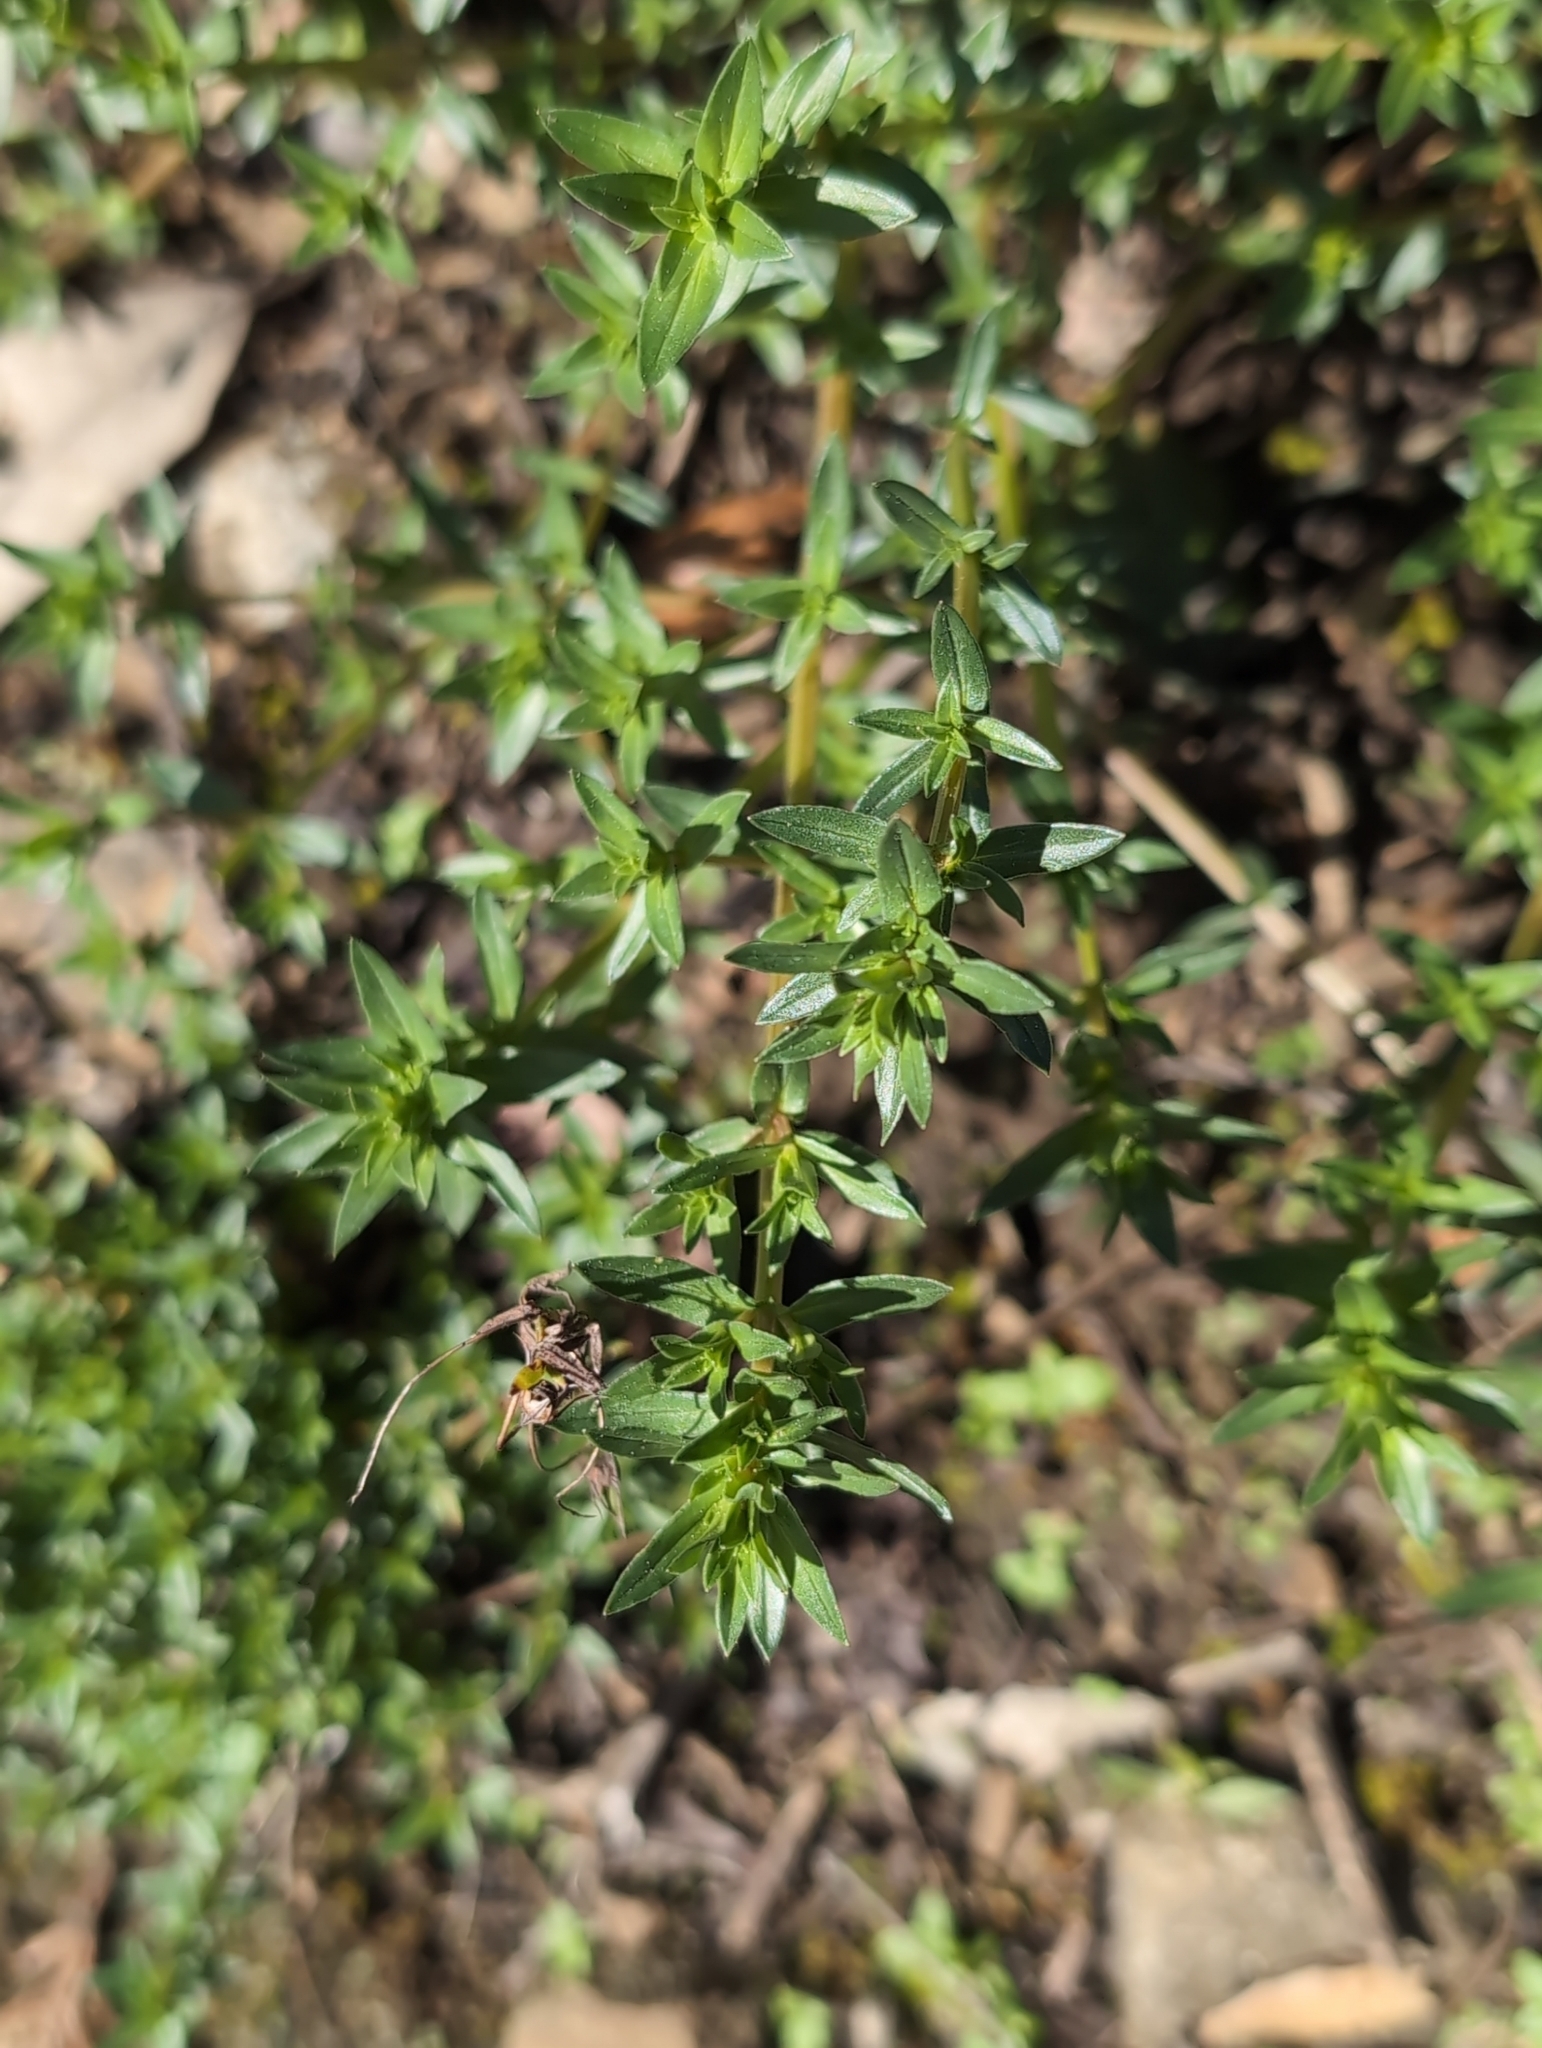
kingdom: Plantae
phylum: Tracheophyta
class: Magnoliopsida
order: Ericales
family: Primulaceae
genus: Lysimachia
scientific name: Lysimachia monelli
